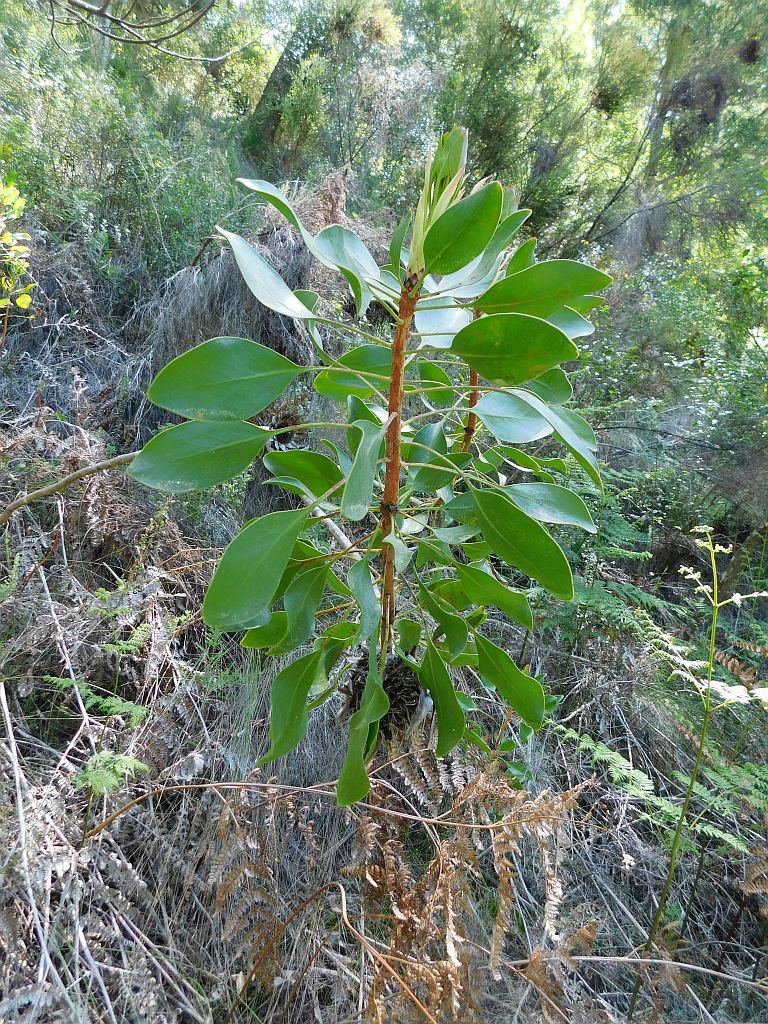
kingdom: Plantae
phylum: Tracheophyta
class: Magnoliopsida
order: Proteales
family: Proteaceae
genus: Protea
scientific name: Protea cynaroides
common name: King protea
